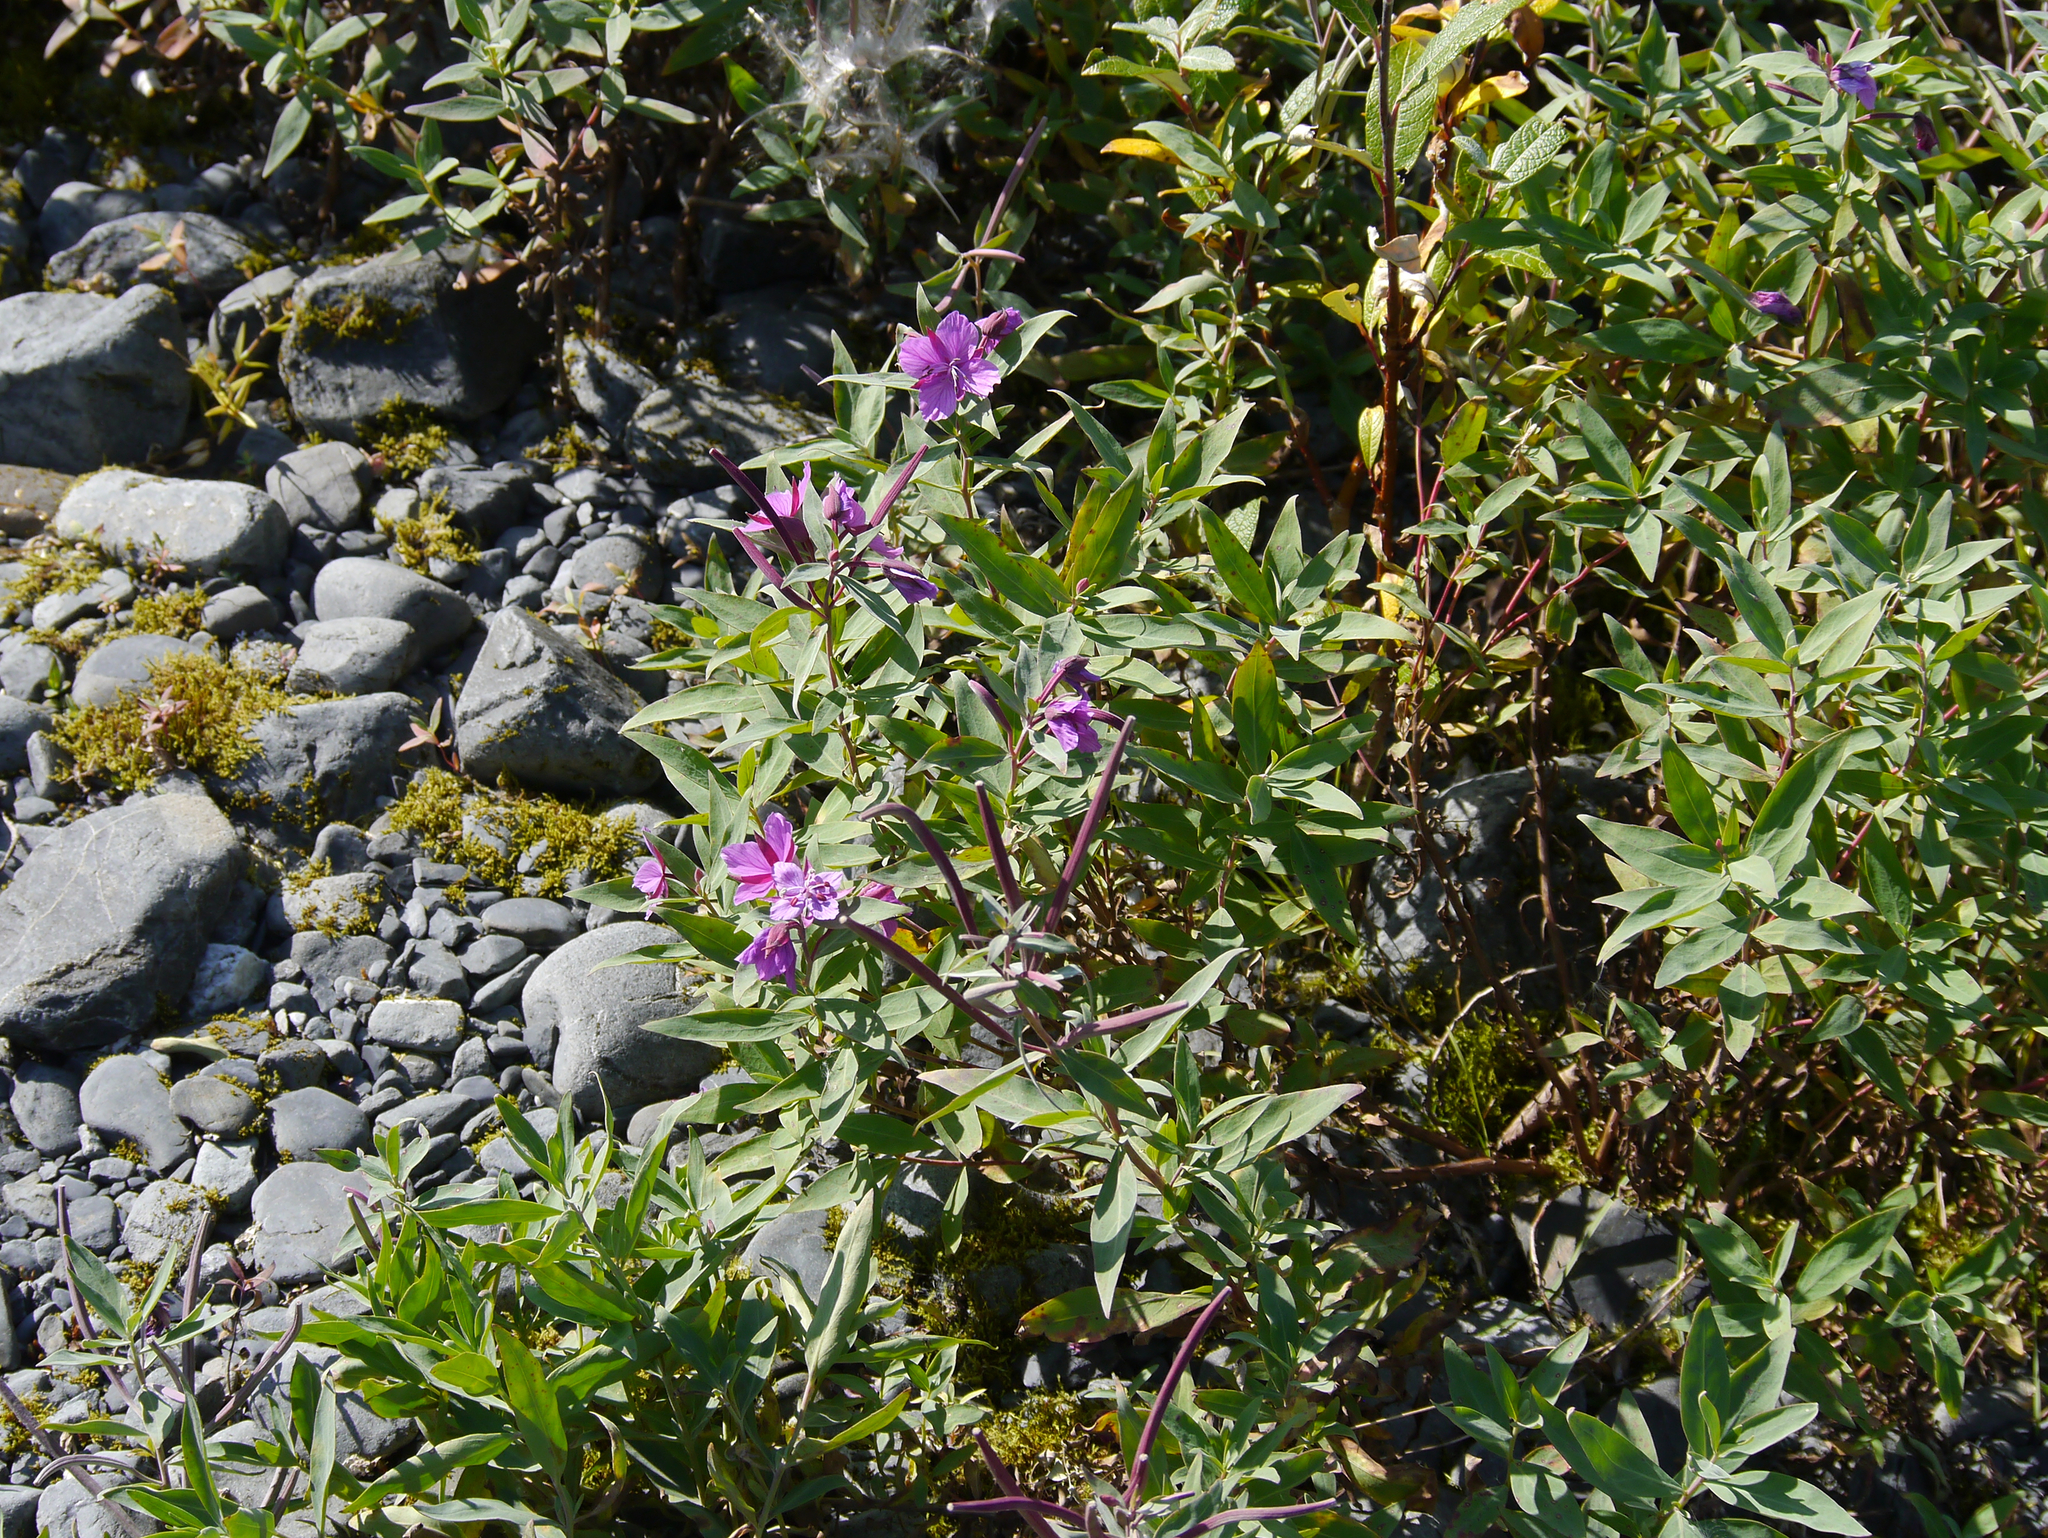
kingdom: Plantae
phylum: Tracheophyta
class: Magnoliopsida
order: Myrtales
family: Onagraceae
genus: Chamaenerion
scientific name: Chamaenerion latifolium
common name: Dwarf fireweed
